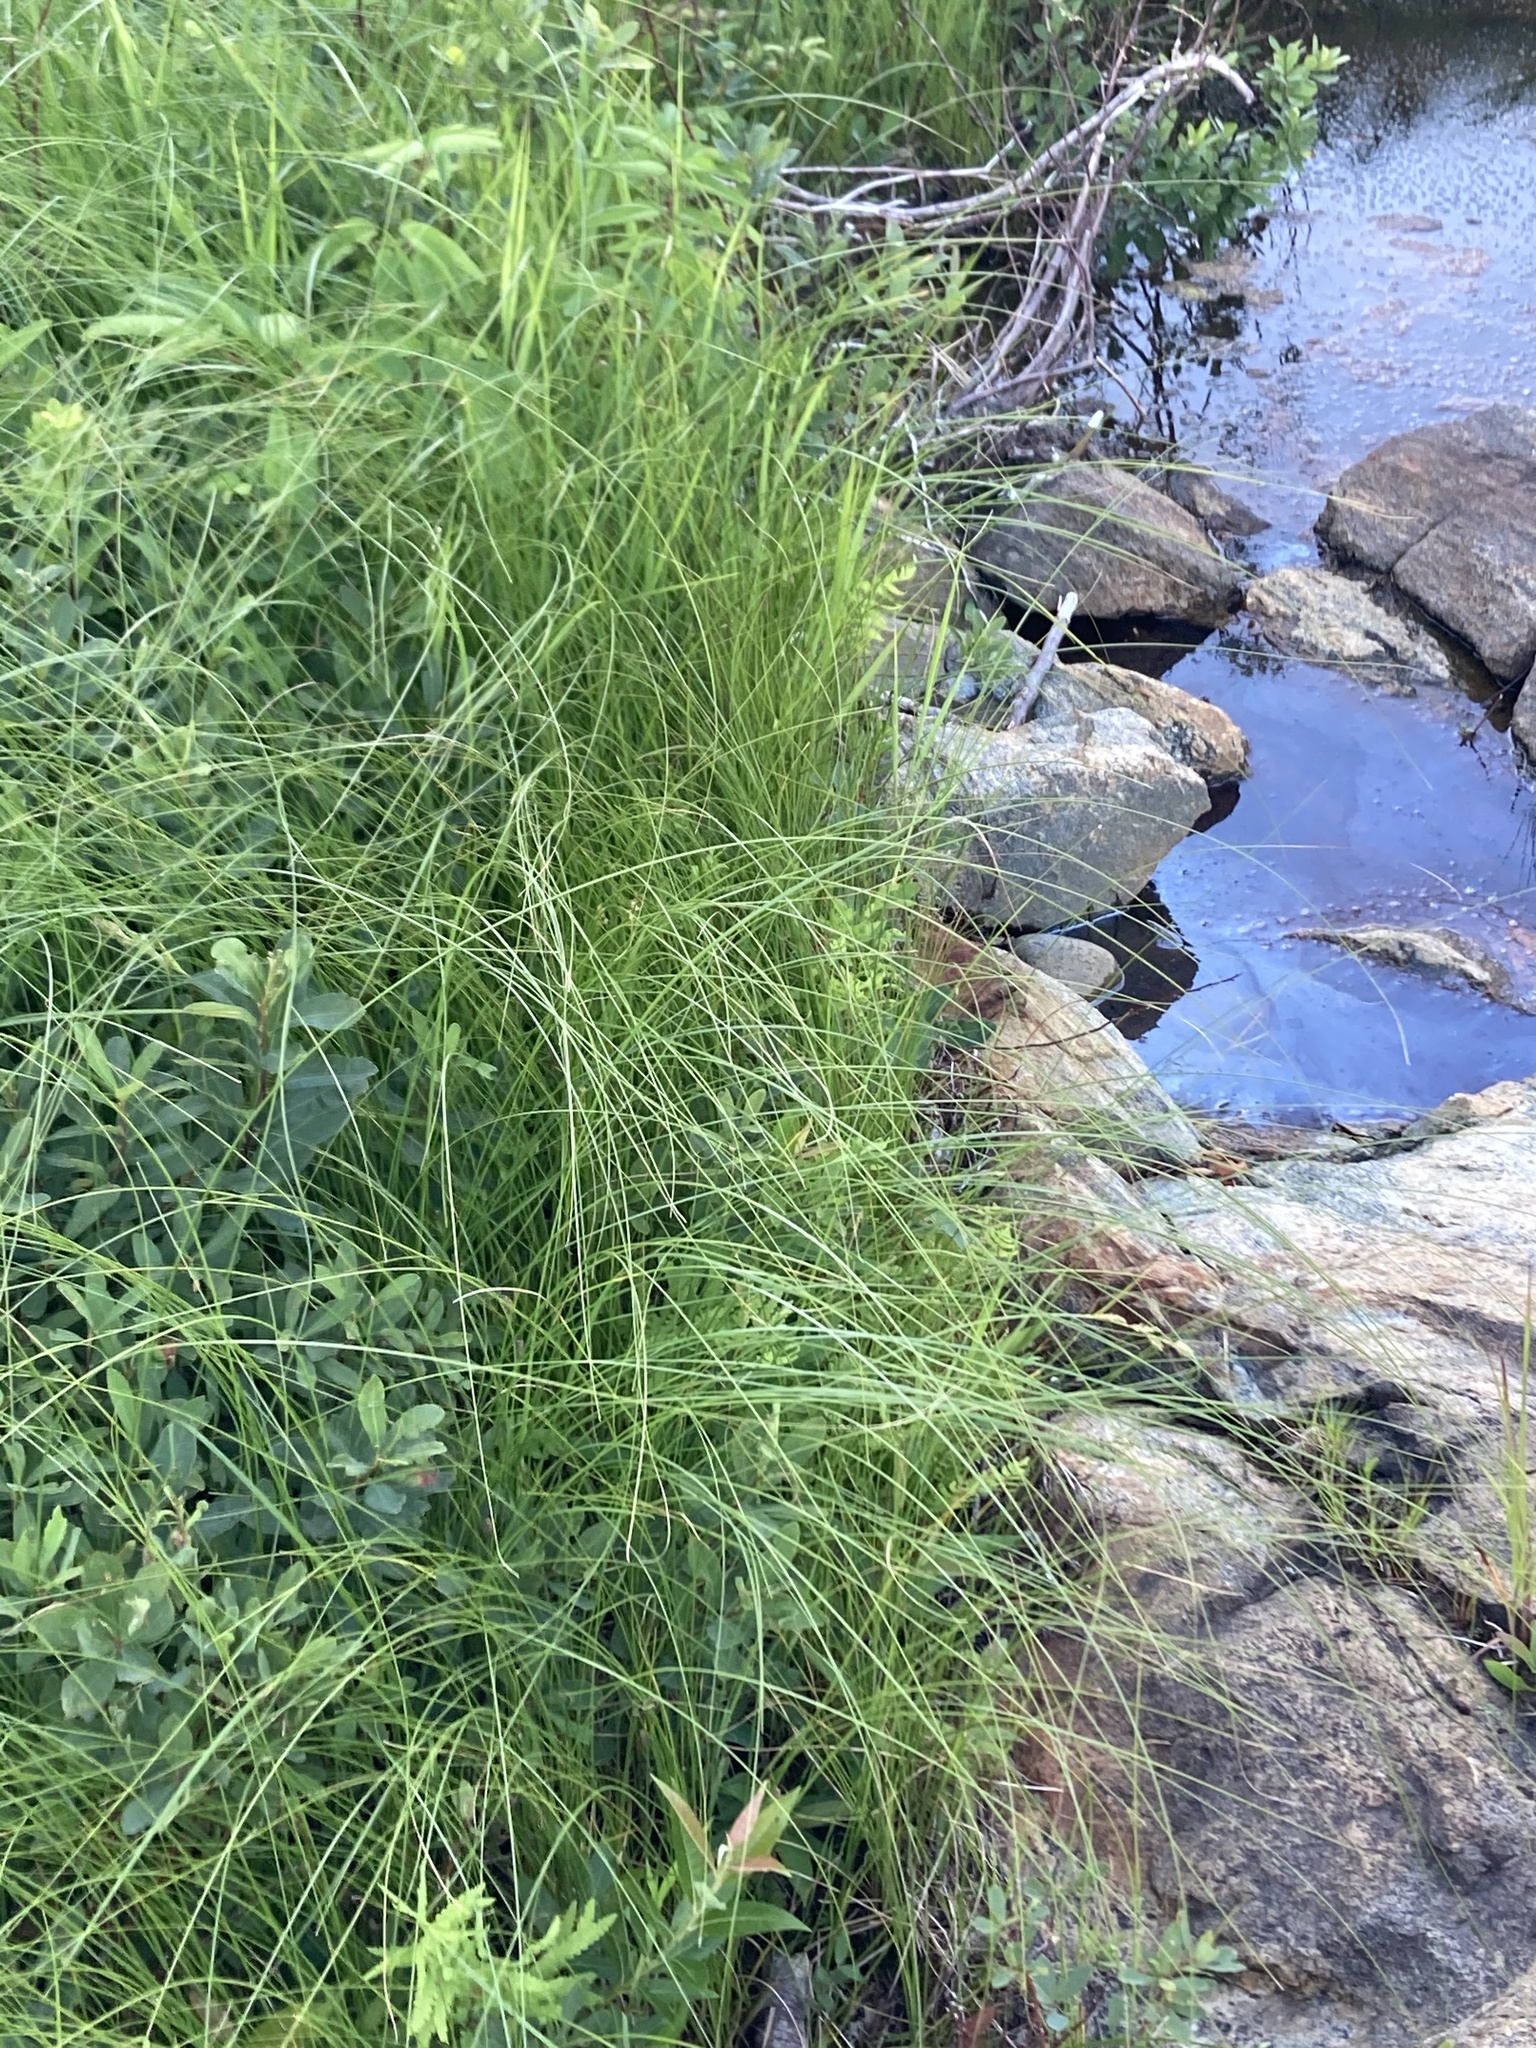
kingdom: Plantae
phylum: Tracheophyta
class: Liliopsida
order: Poales
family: Cyperaceae
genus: Carex
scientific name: Carex buxbaumii
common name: Club sedge
